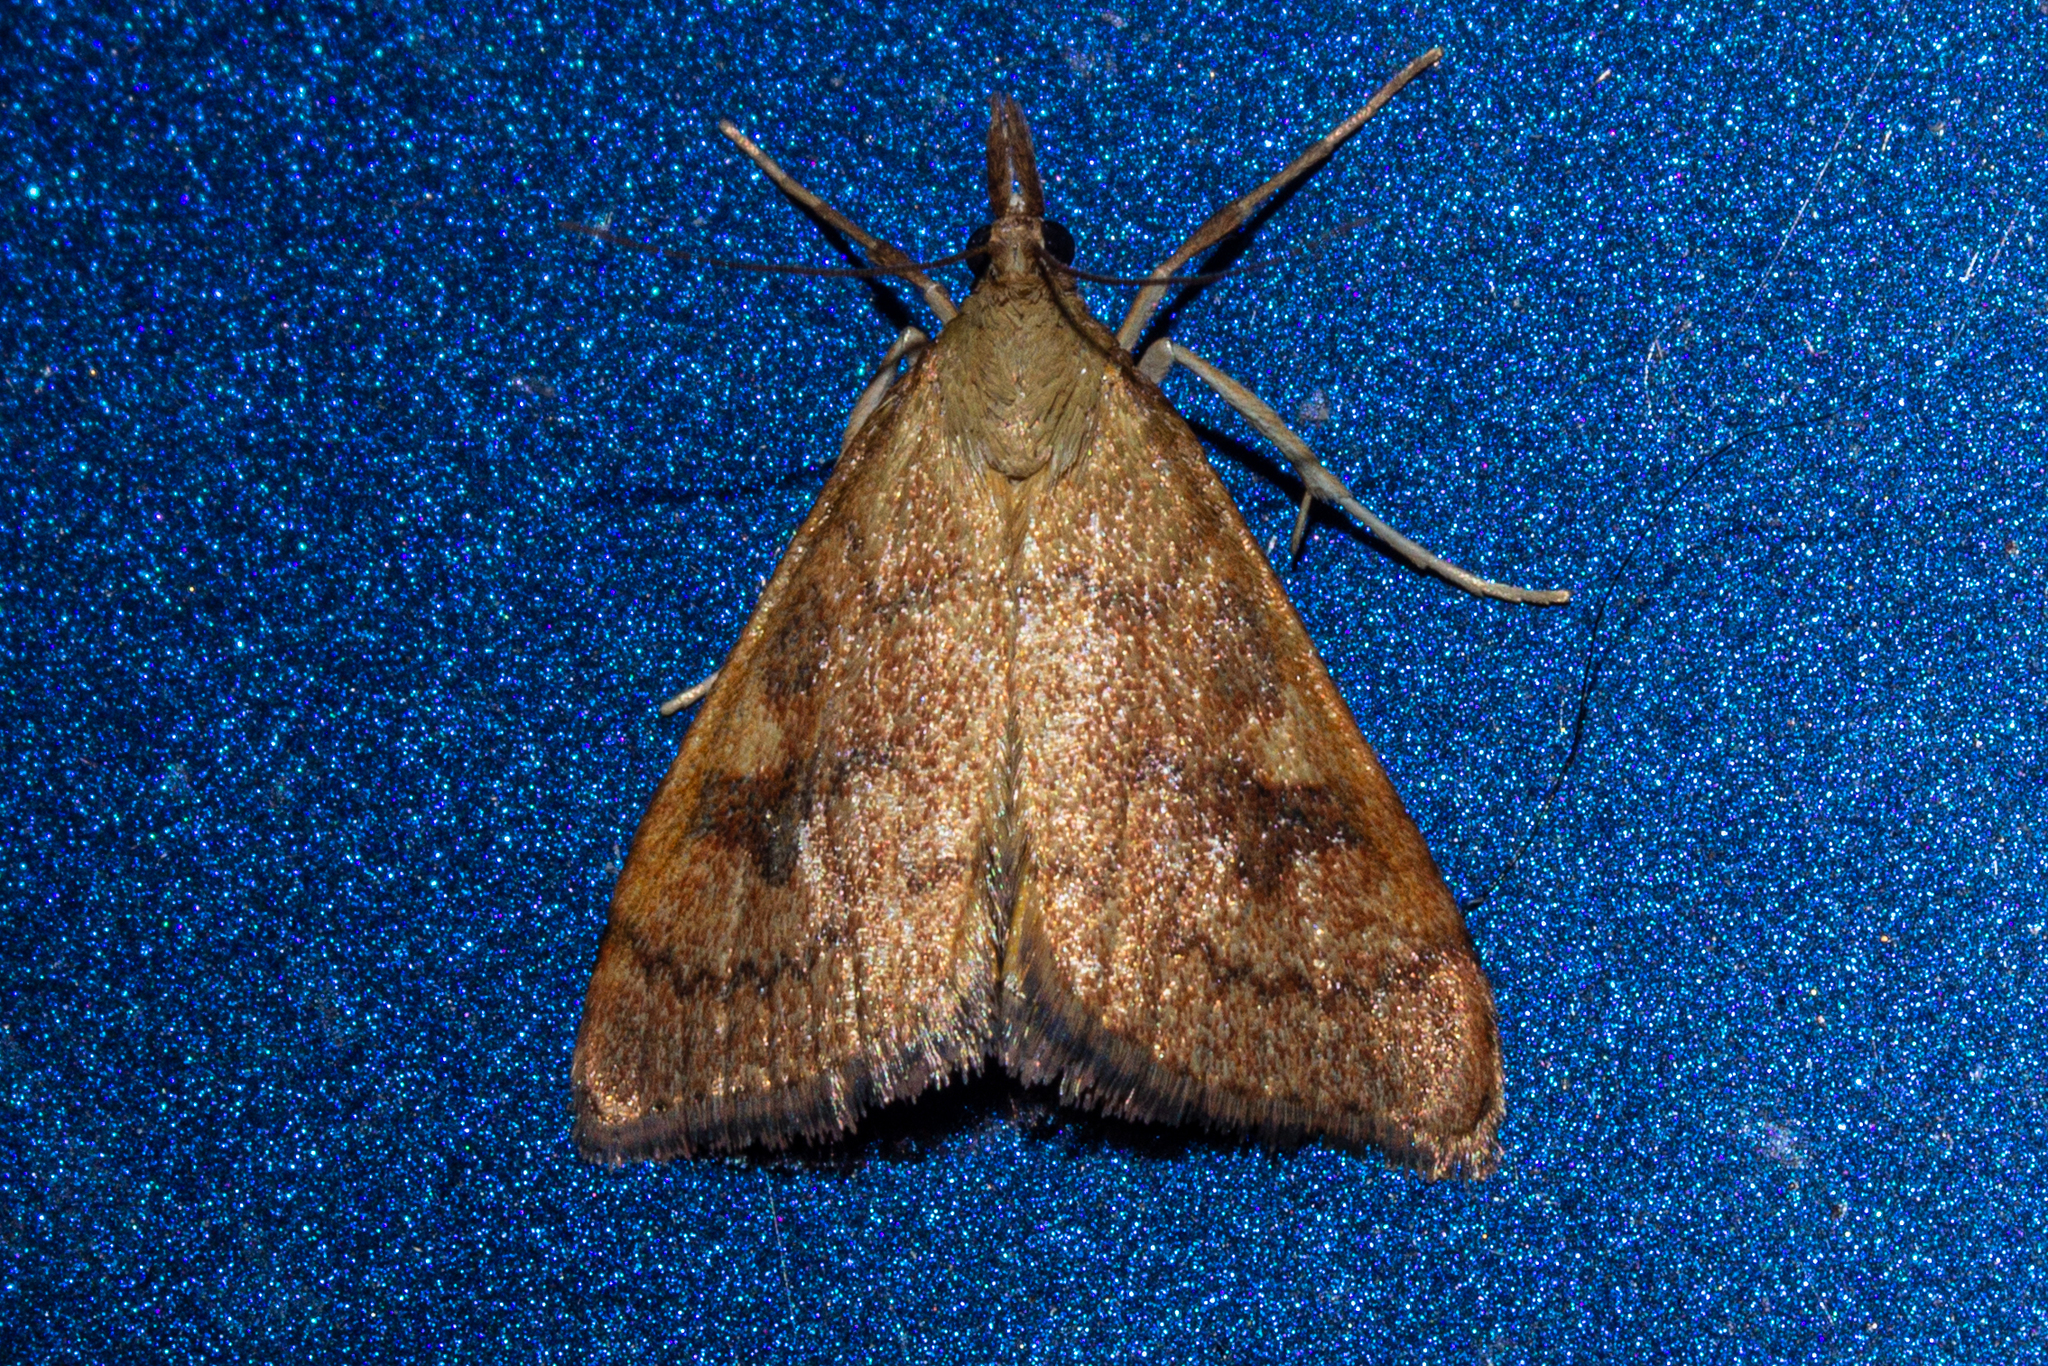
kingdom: Animalia
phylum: Arthropoda
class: Insecta
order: Lepidoptera
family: Crambidae
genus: Udea
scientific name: Udea Mnesictena flavidalis
